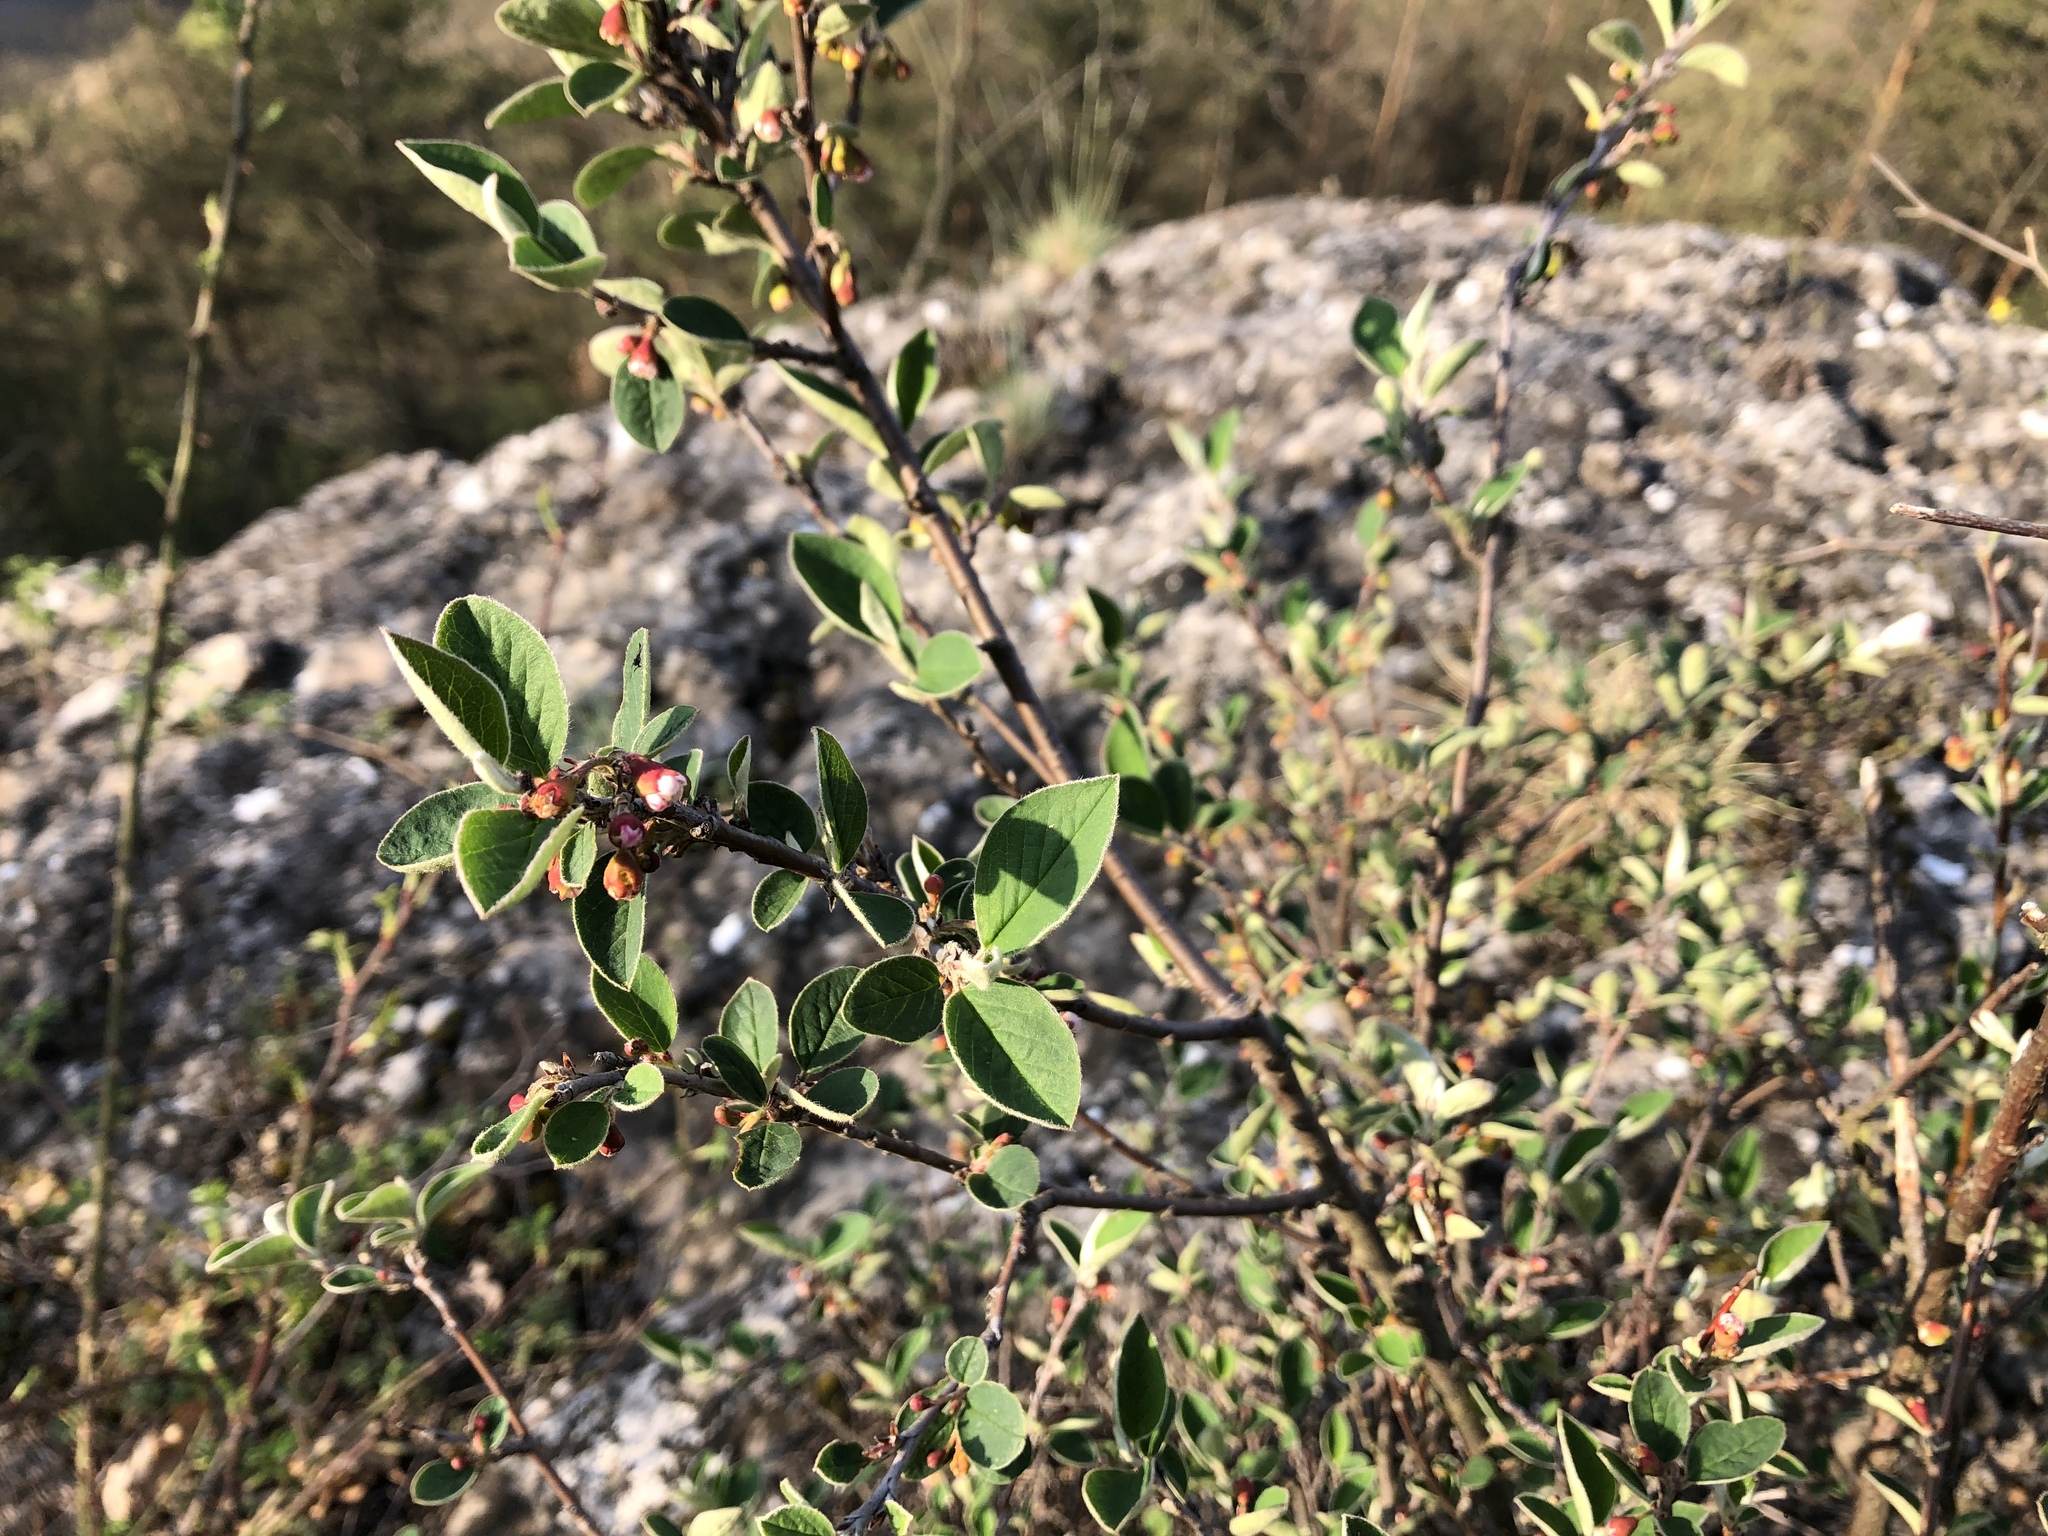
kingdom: Plantae
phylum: Tracheophyta
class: Magnoliopsida
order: Rosales
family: Rosaceae
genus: Cotoneaster
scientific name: Cotoneaster integerrimus
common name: Wild cotoneaster
